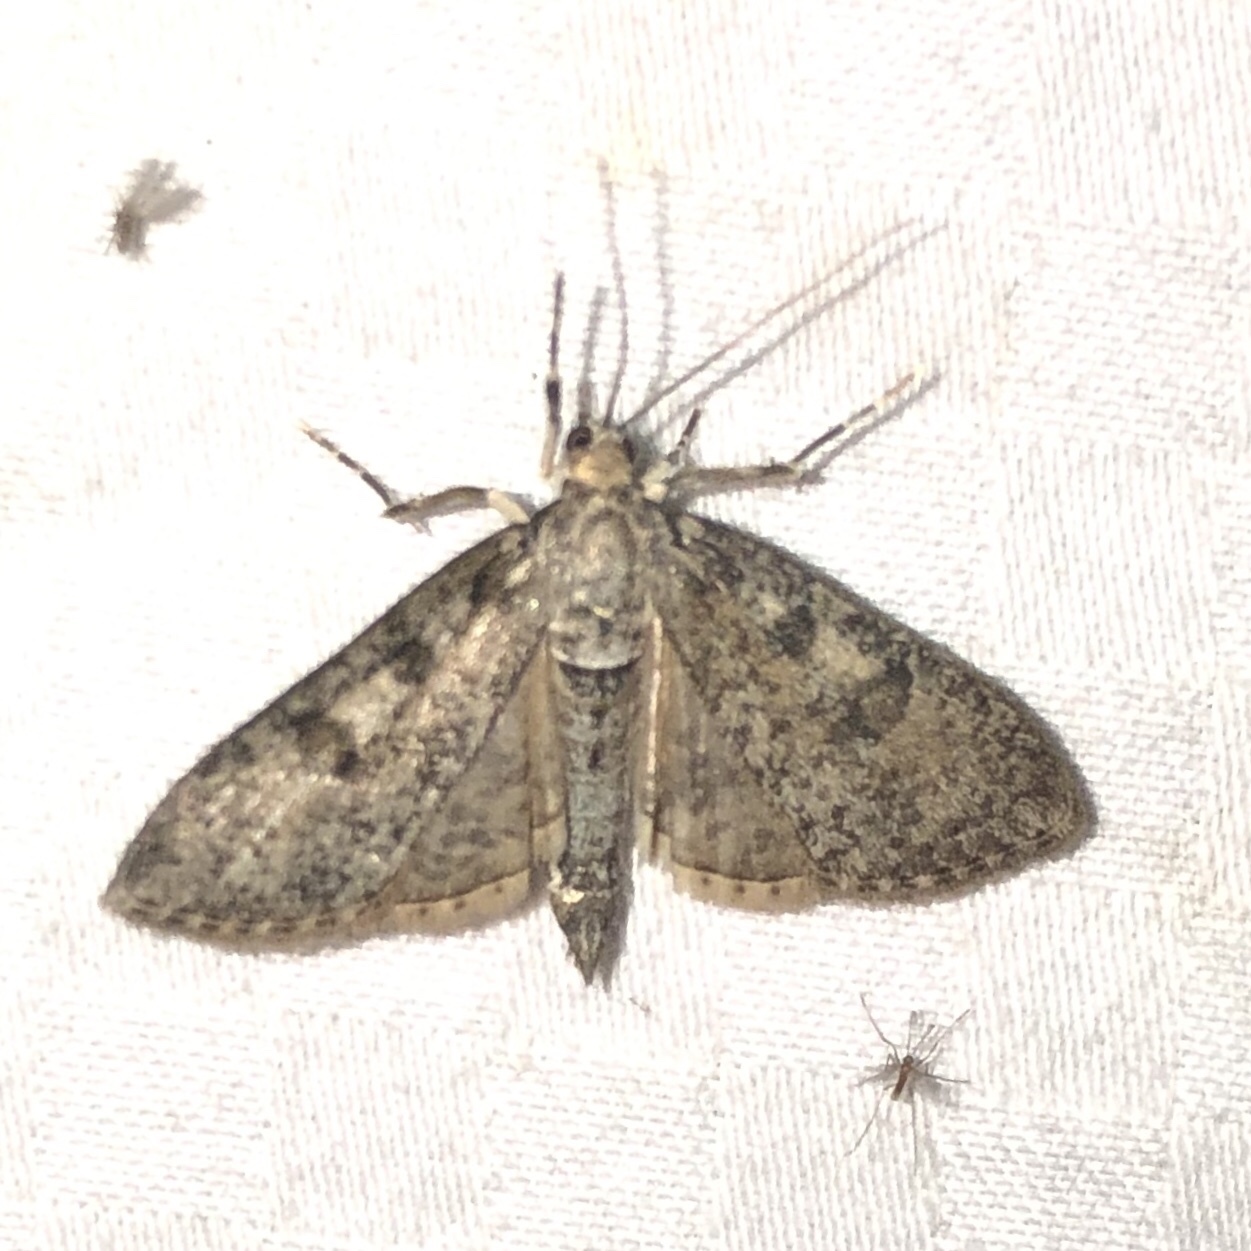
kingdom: Animalia
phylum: Arthropoda
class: Insecta
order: Lepidoptera
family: Crambidae
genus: Palpita
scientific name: Palpita magniferalis
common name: Splendid palpita moth
